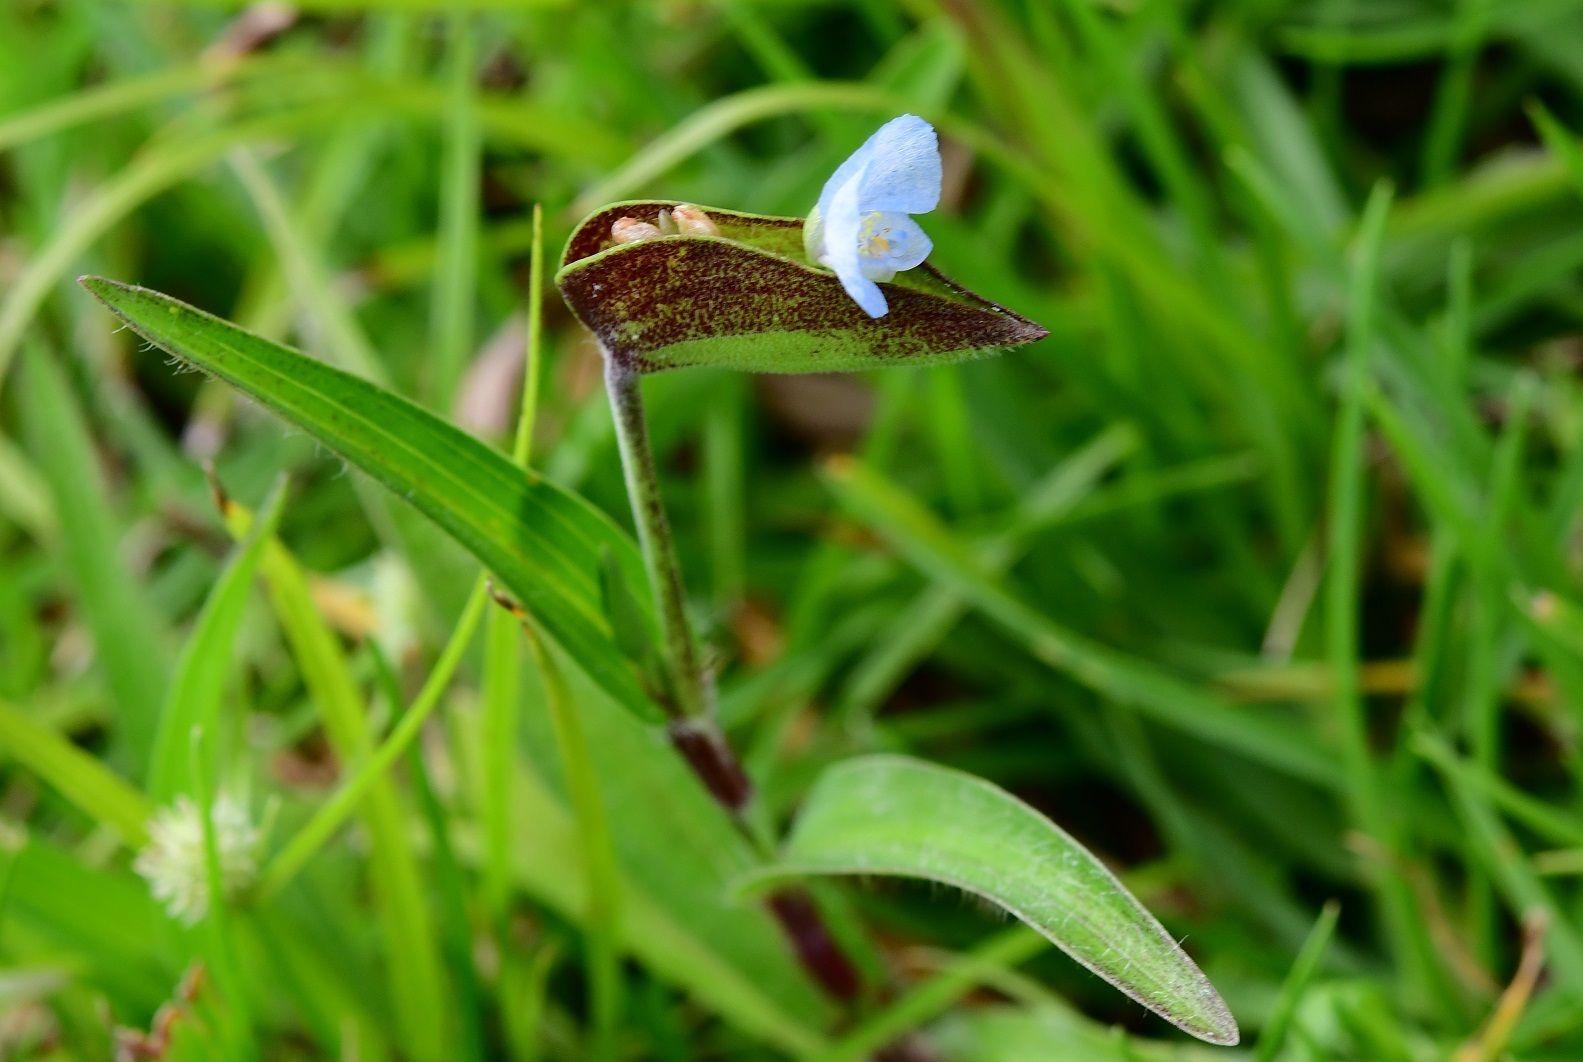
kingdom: Plantae
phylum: Tracheophyta
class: Liliopsida
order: Commelinales
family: Commelinaceae
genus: Commelina
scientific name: Commelina tuberosa
